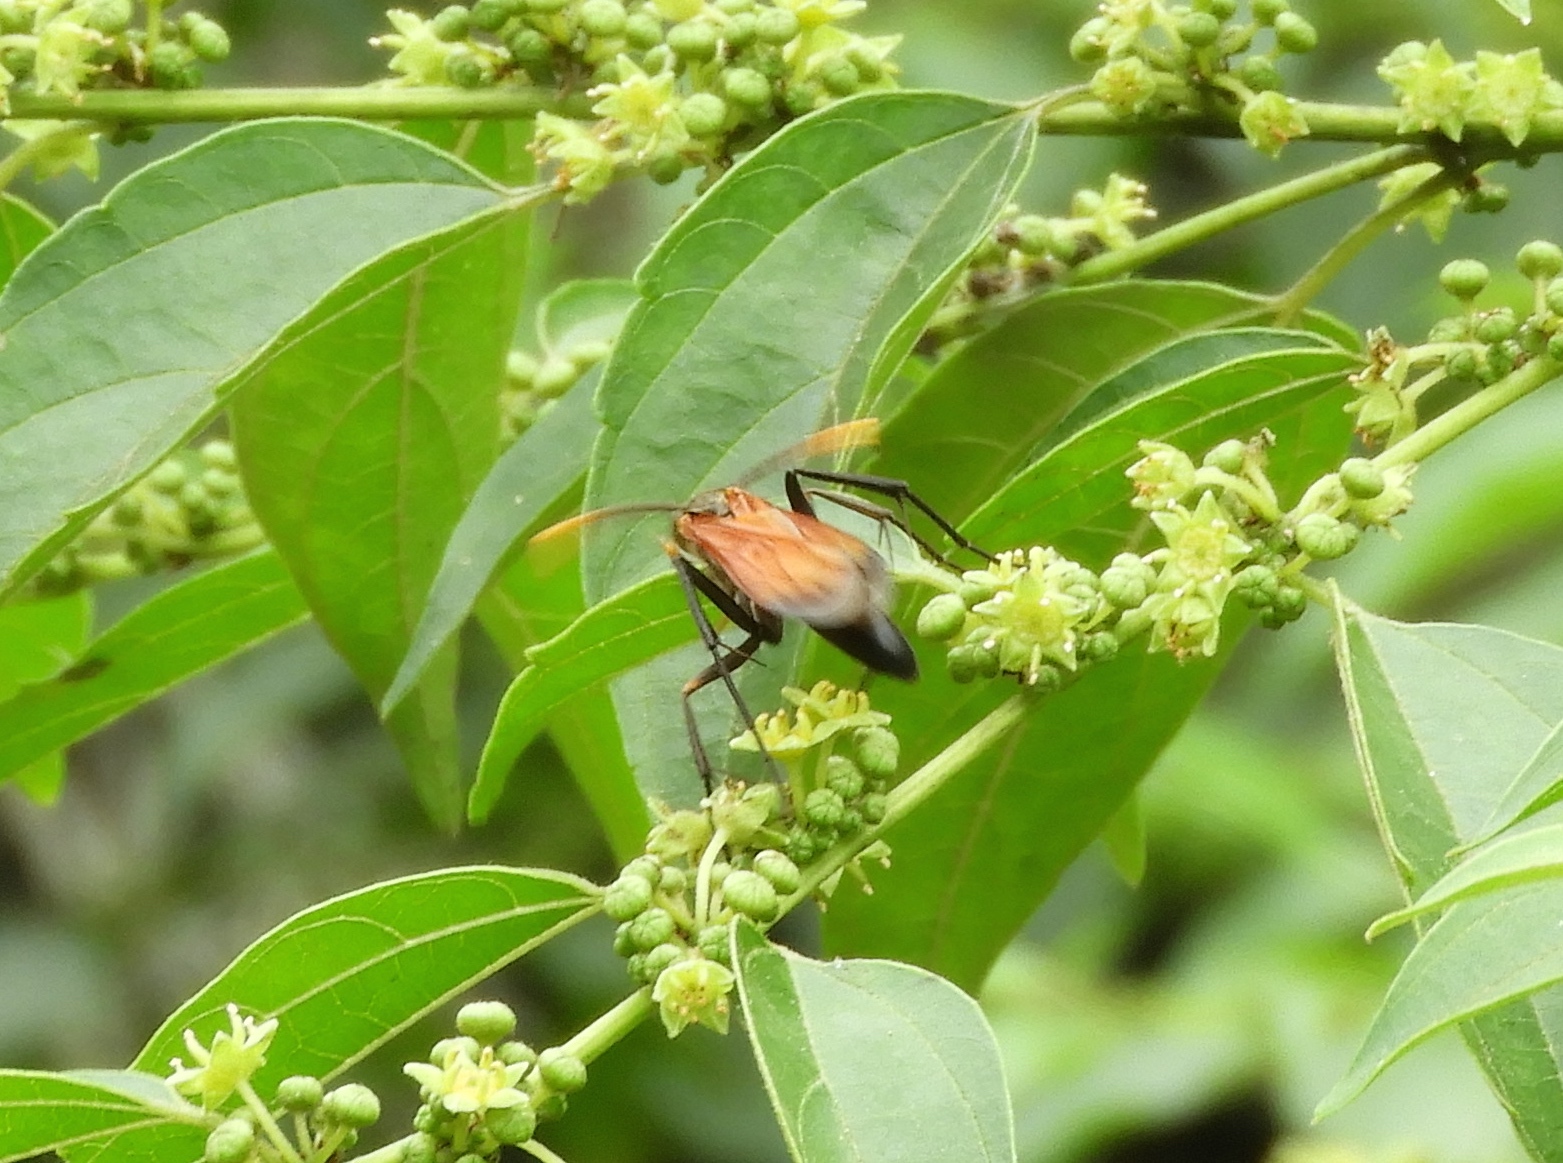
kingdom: Animalia
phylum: Arthropoda
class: Insecta
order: Hymenoptera
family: Pompilidae
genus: Hemipepsis
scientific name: Hemipepsis
